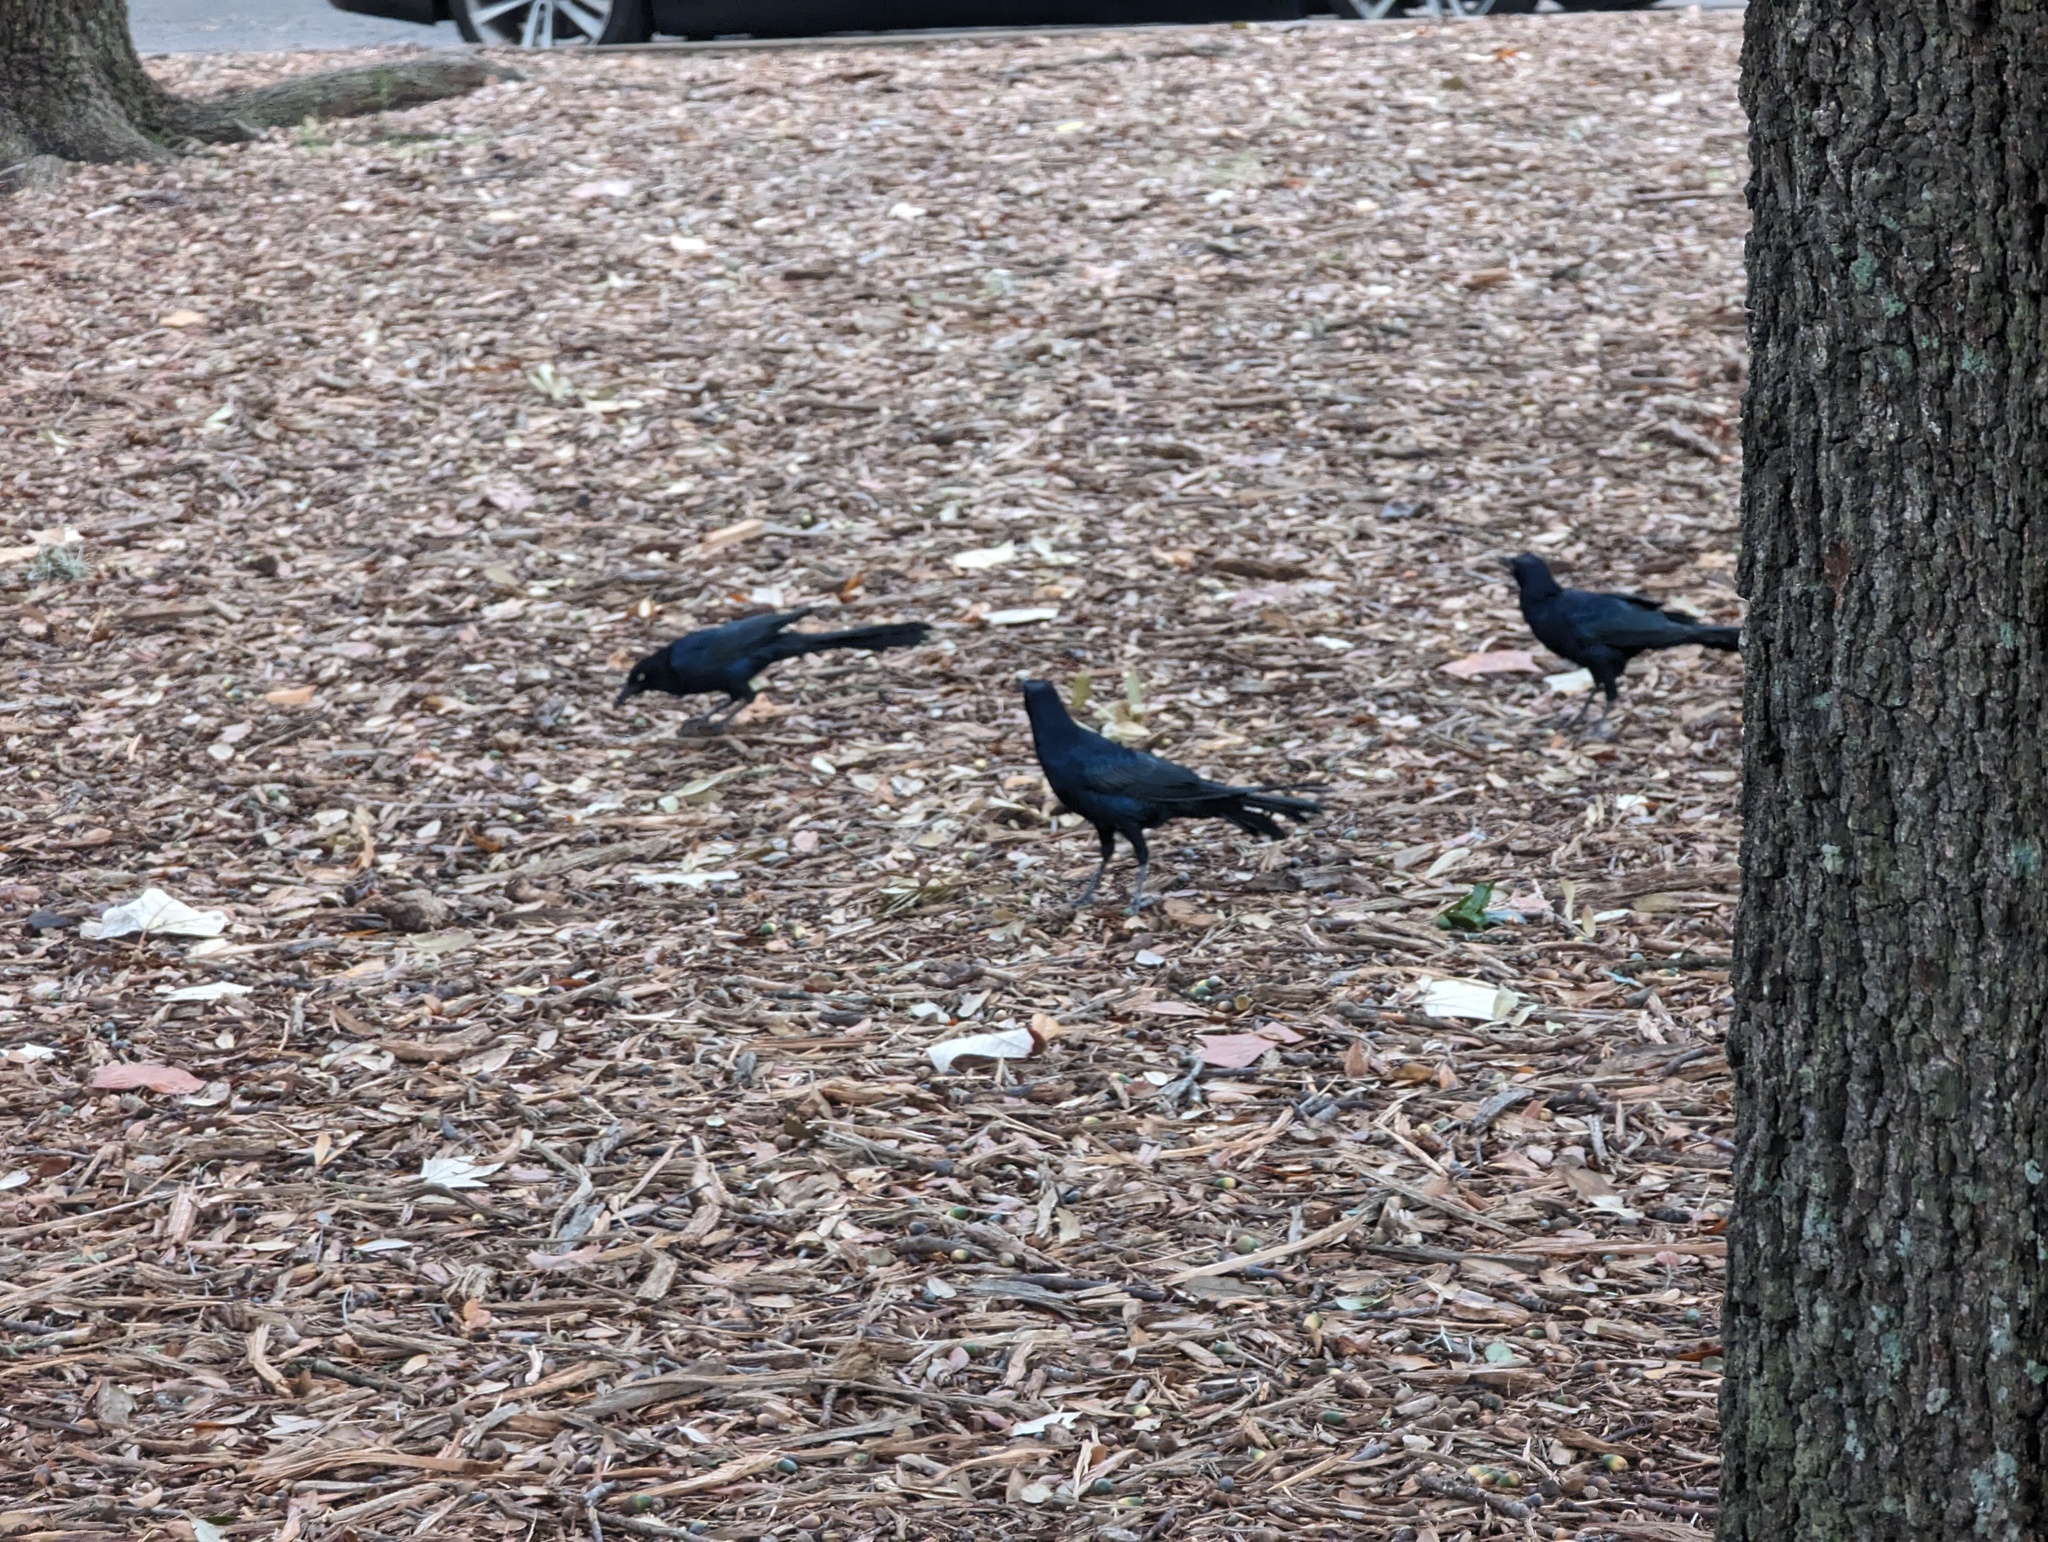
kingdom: Animalia
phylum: Chordata
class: Aves
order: Passeriformes
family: Icteridae
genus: Quiscalus
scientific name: Quiscalus mexicanus
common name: Great-tailed grackle
